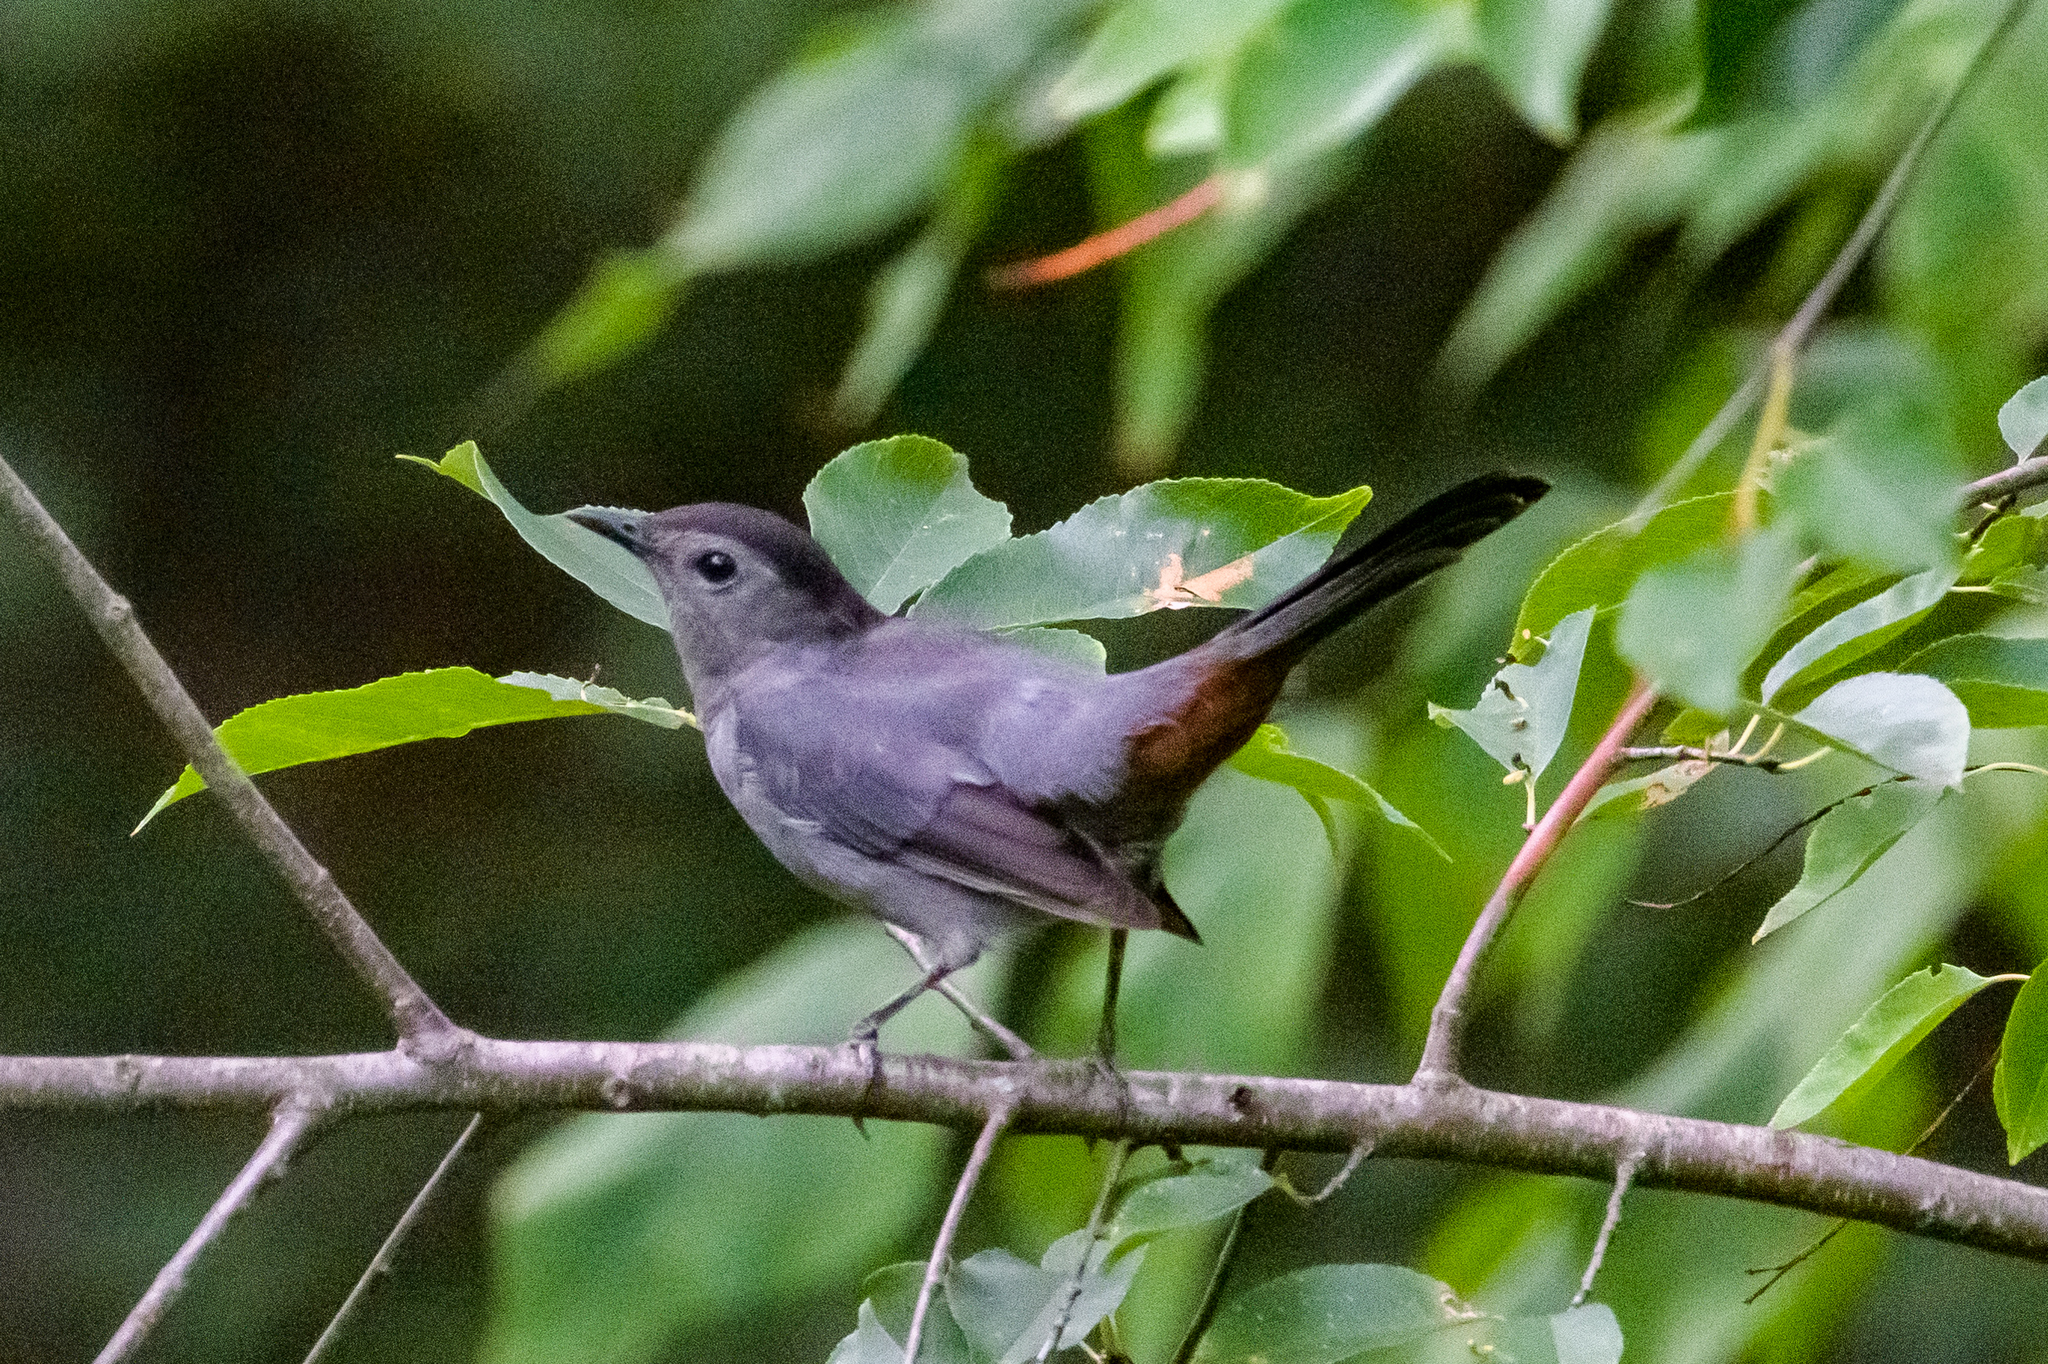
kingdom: Animalia
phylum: Chordata
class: Aves
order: Passeriformes
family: Mimidae
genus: Dumetella
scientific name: Dumetella carolinensis
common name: Gray catbird
